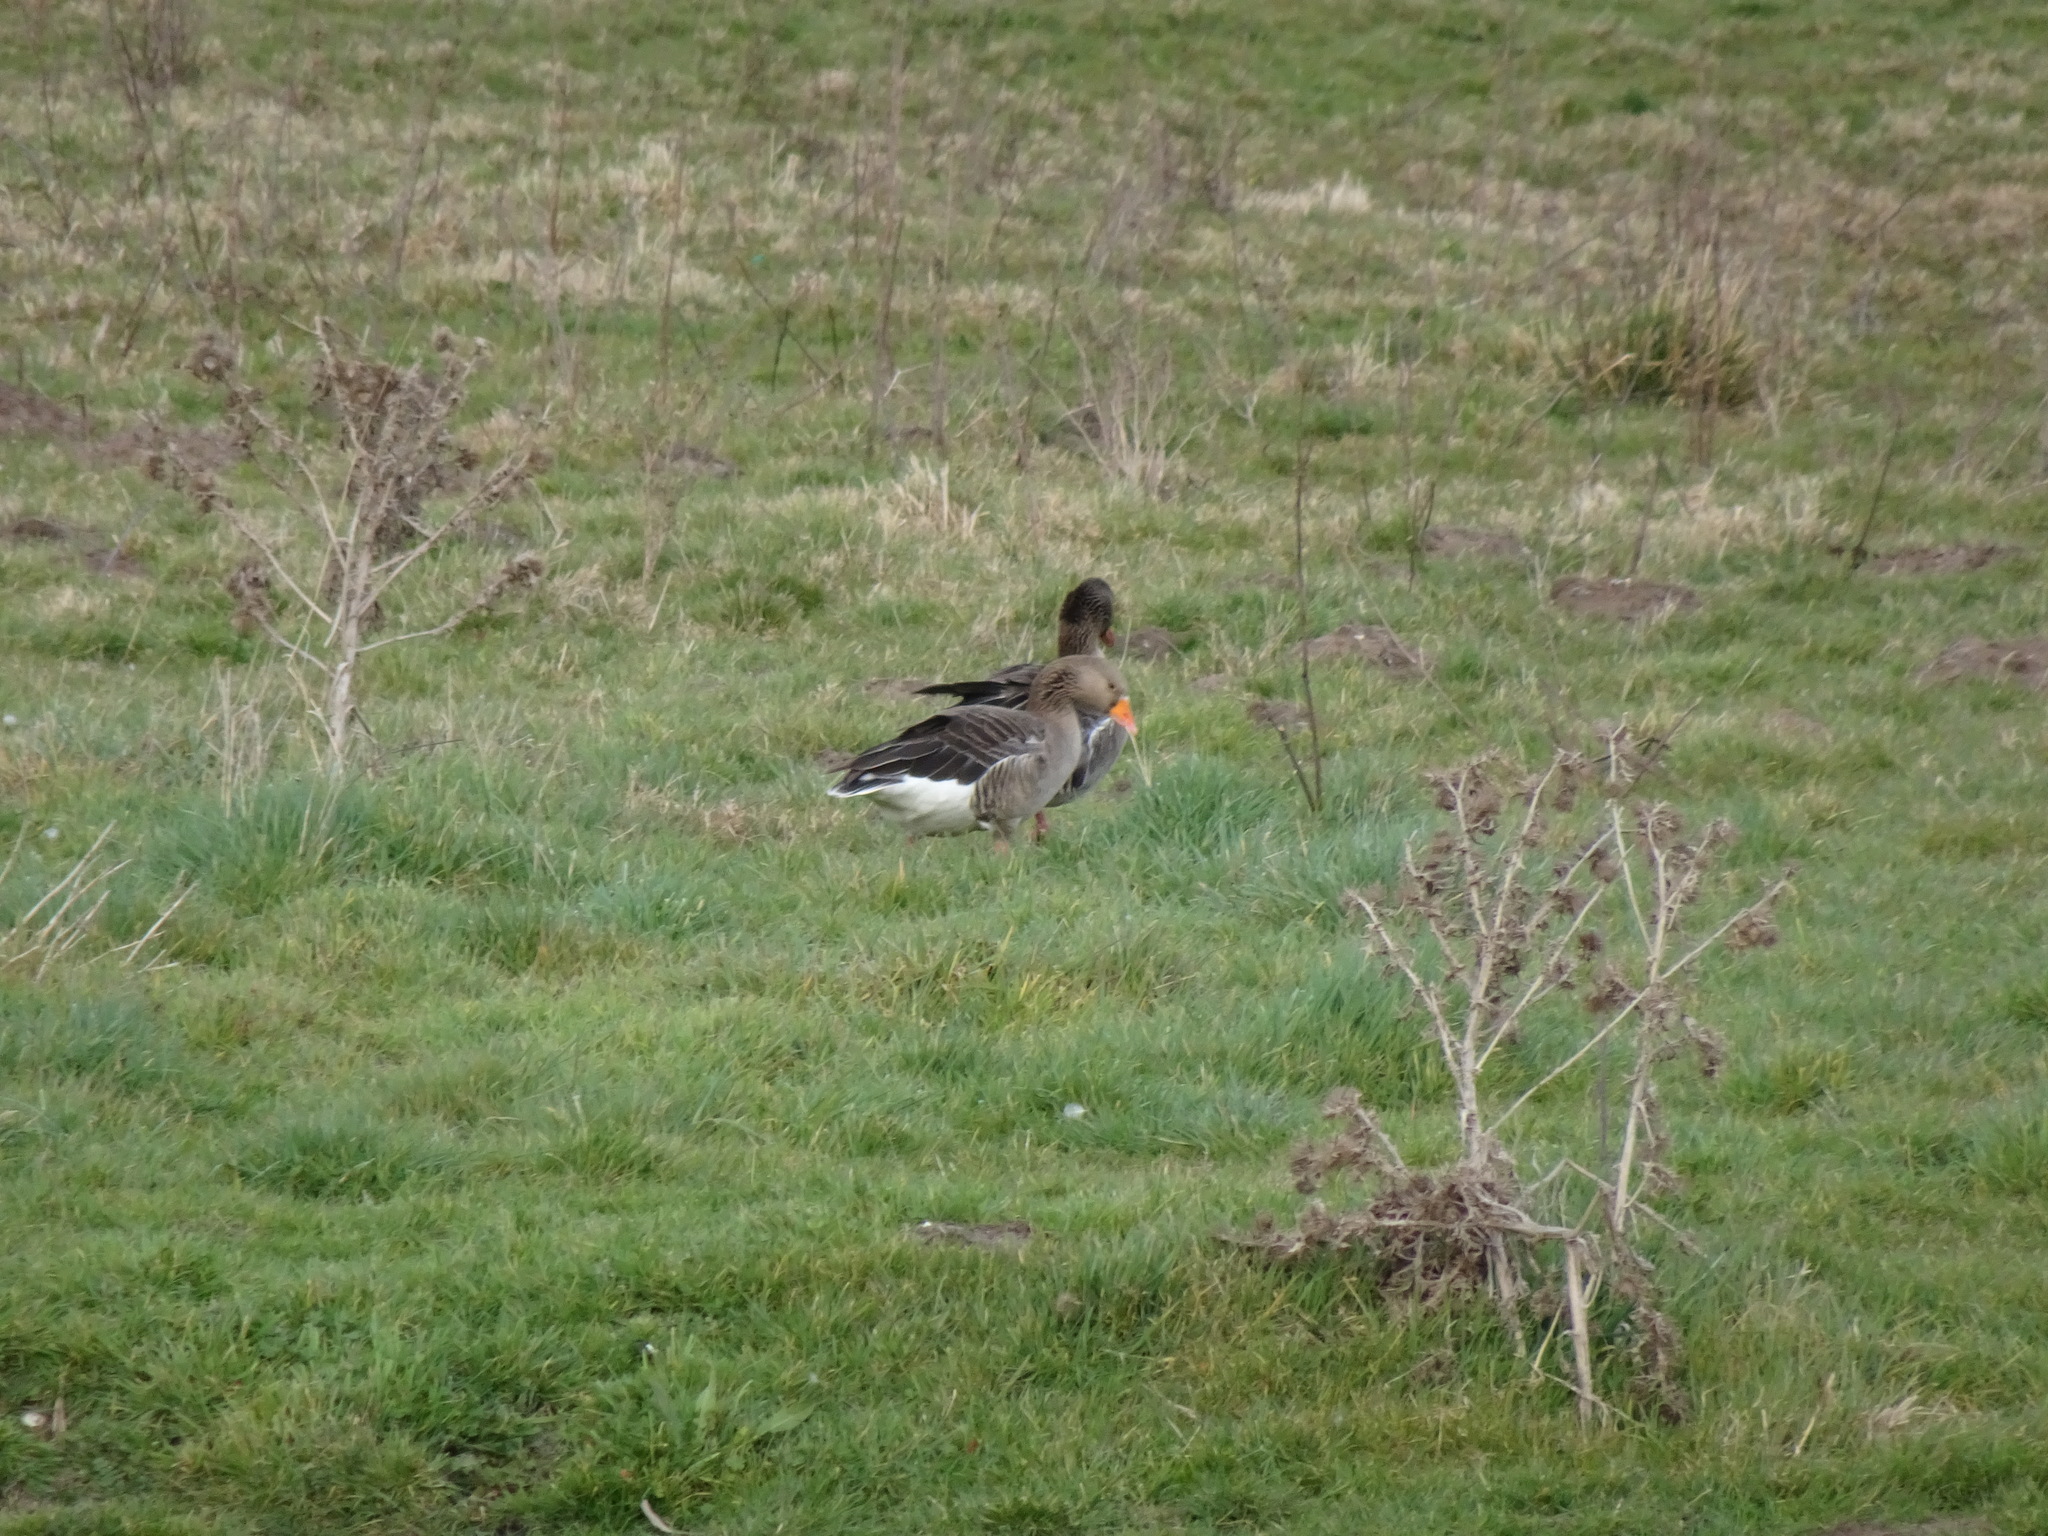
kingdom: Animalia
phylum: Chordata
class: Aves
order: Anseriformes
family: Anatidae
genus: Anser
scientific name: Anser anser
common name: Greylag goose
